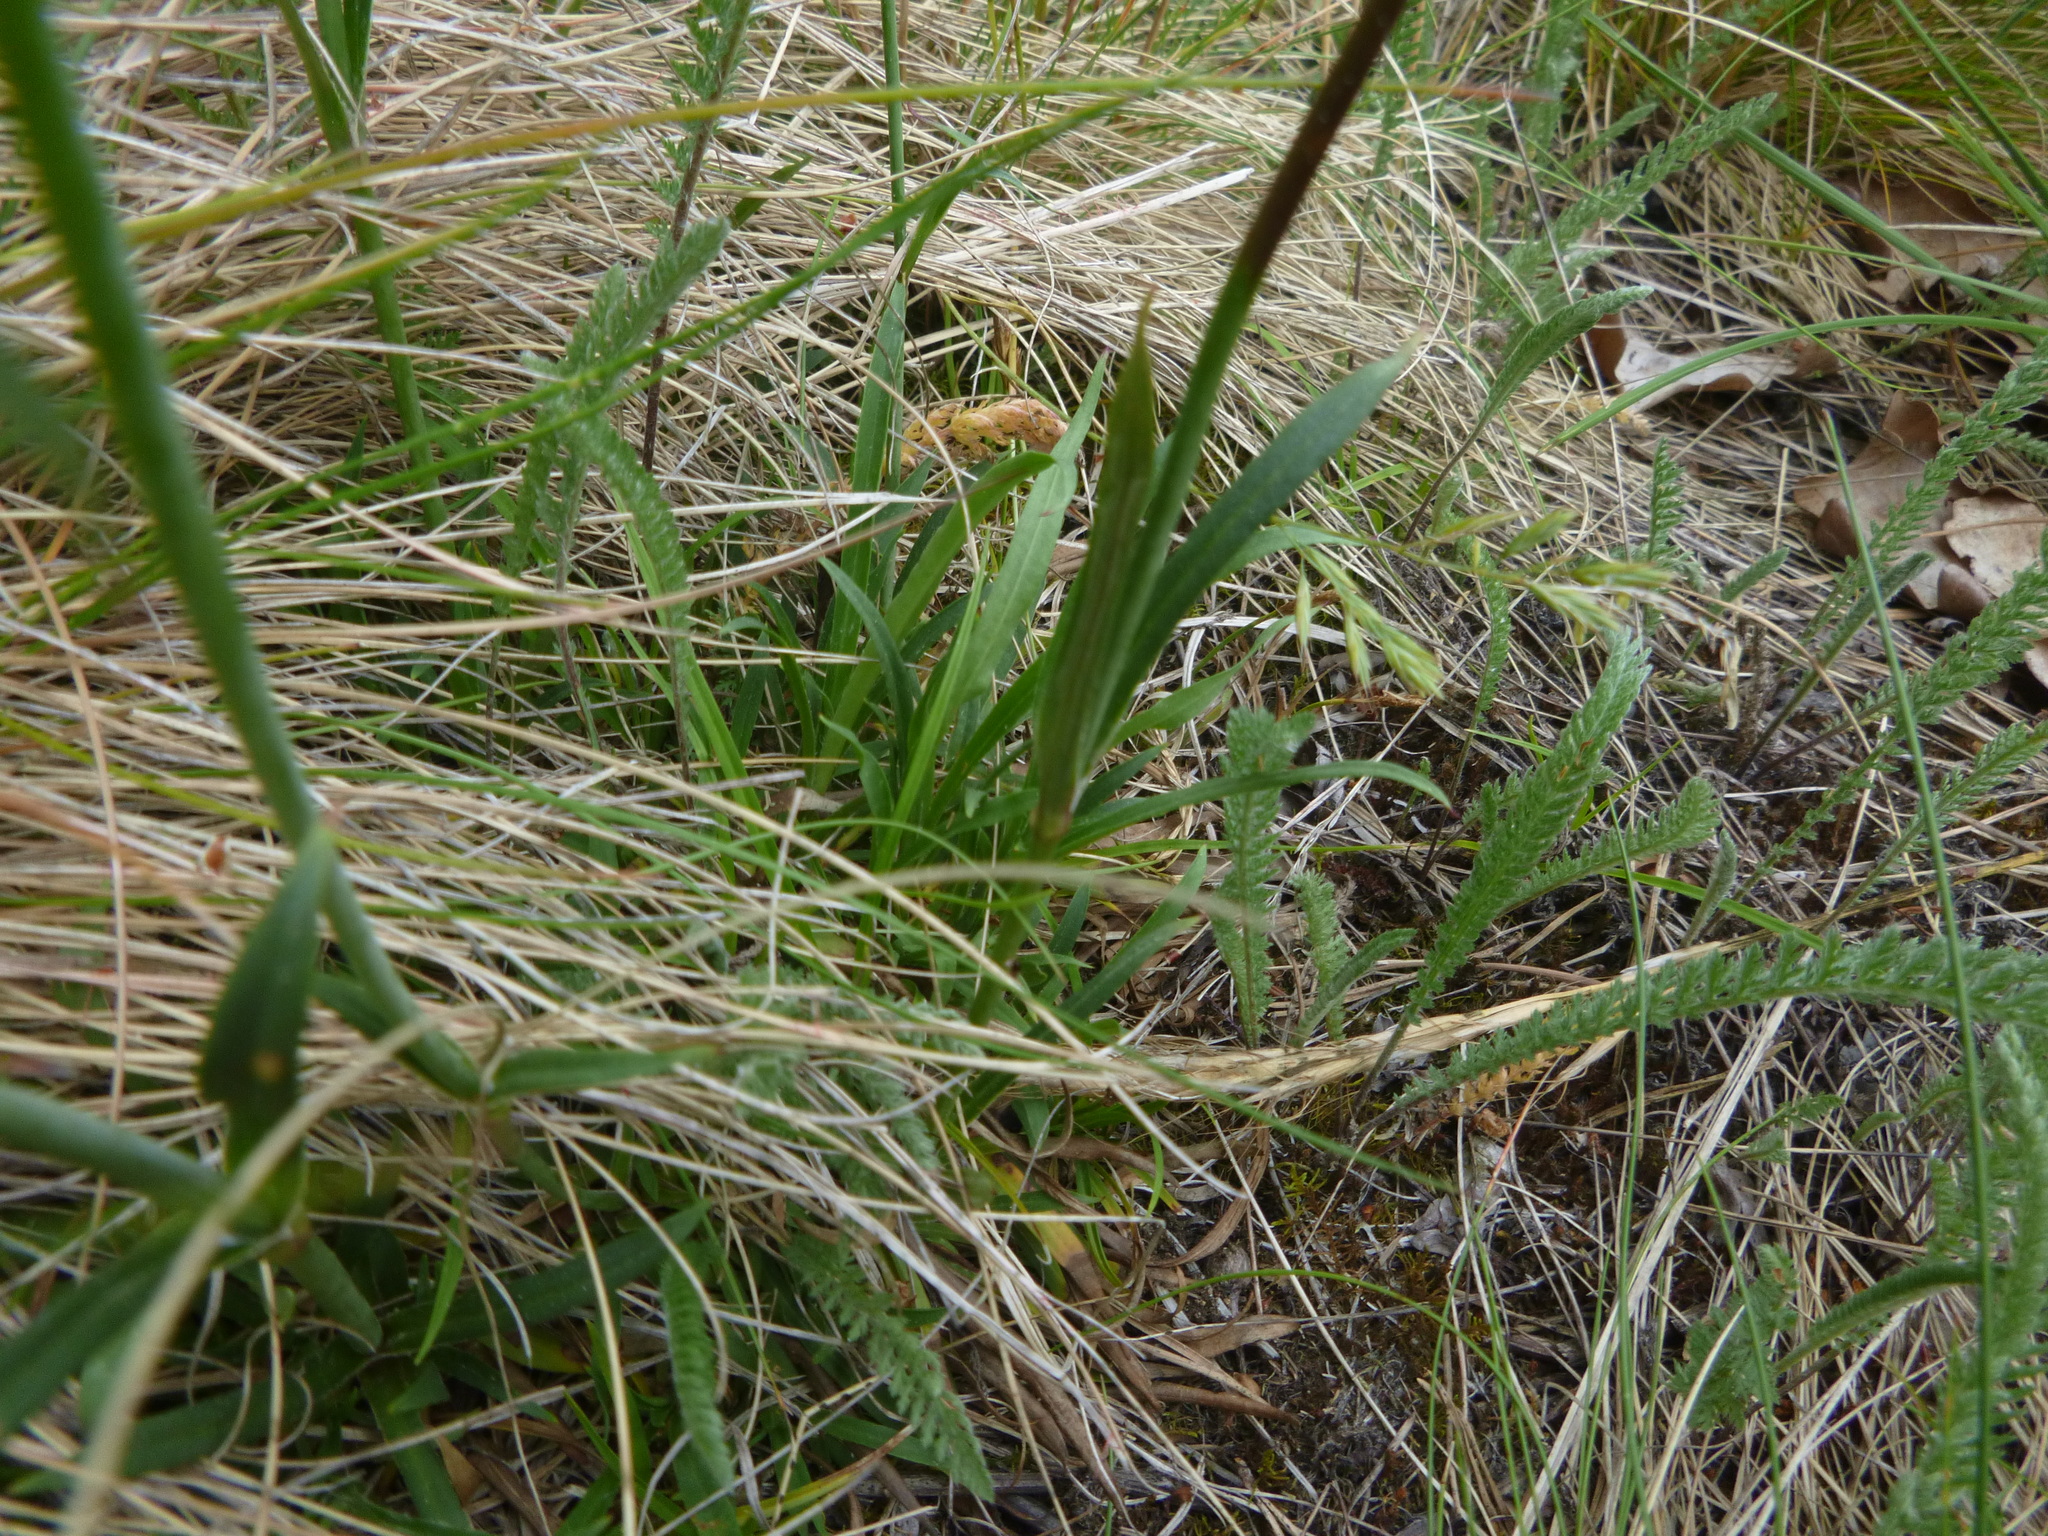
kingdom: Plantae
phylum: Tracheophyta
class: Magnoliopsida
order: Caryophyllales
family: Caryophyllaceae
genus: Viscaria
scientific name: Viscaria vulgaris
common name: Clammy campion
